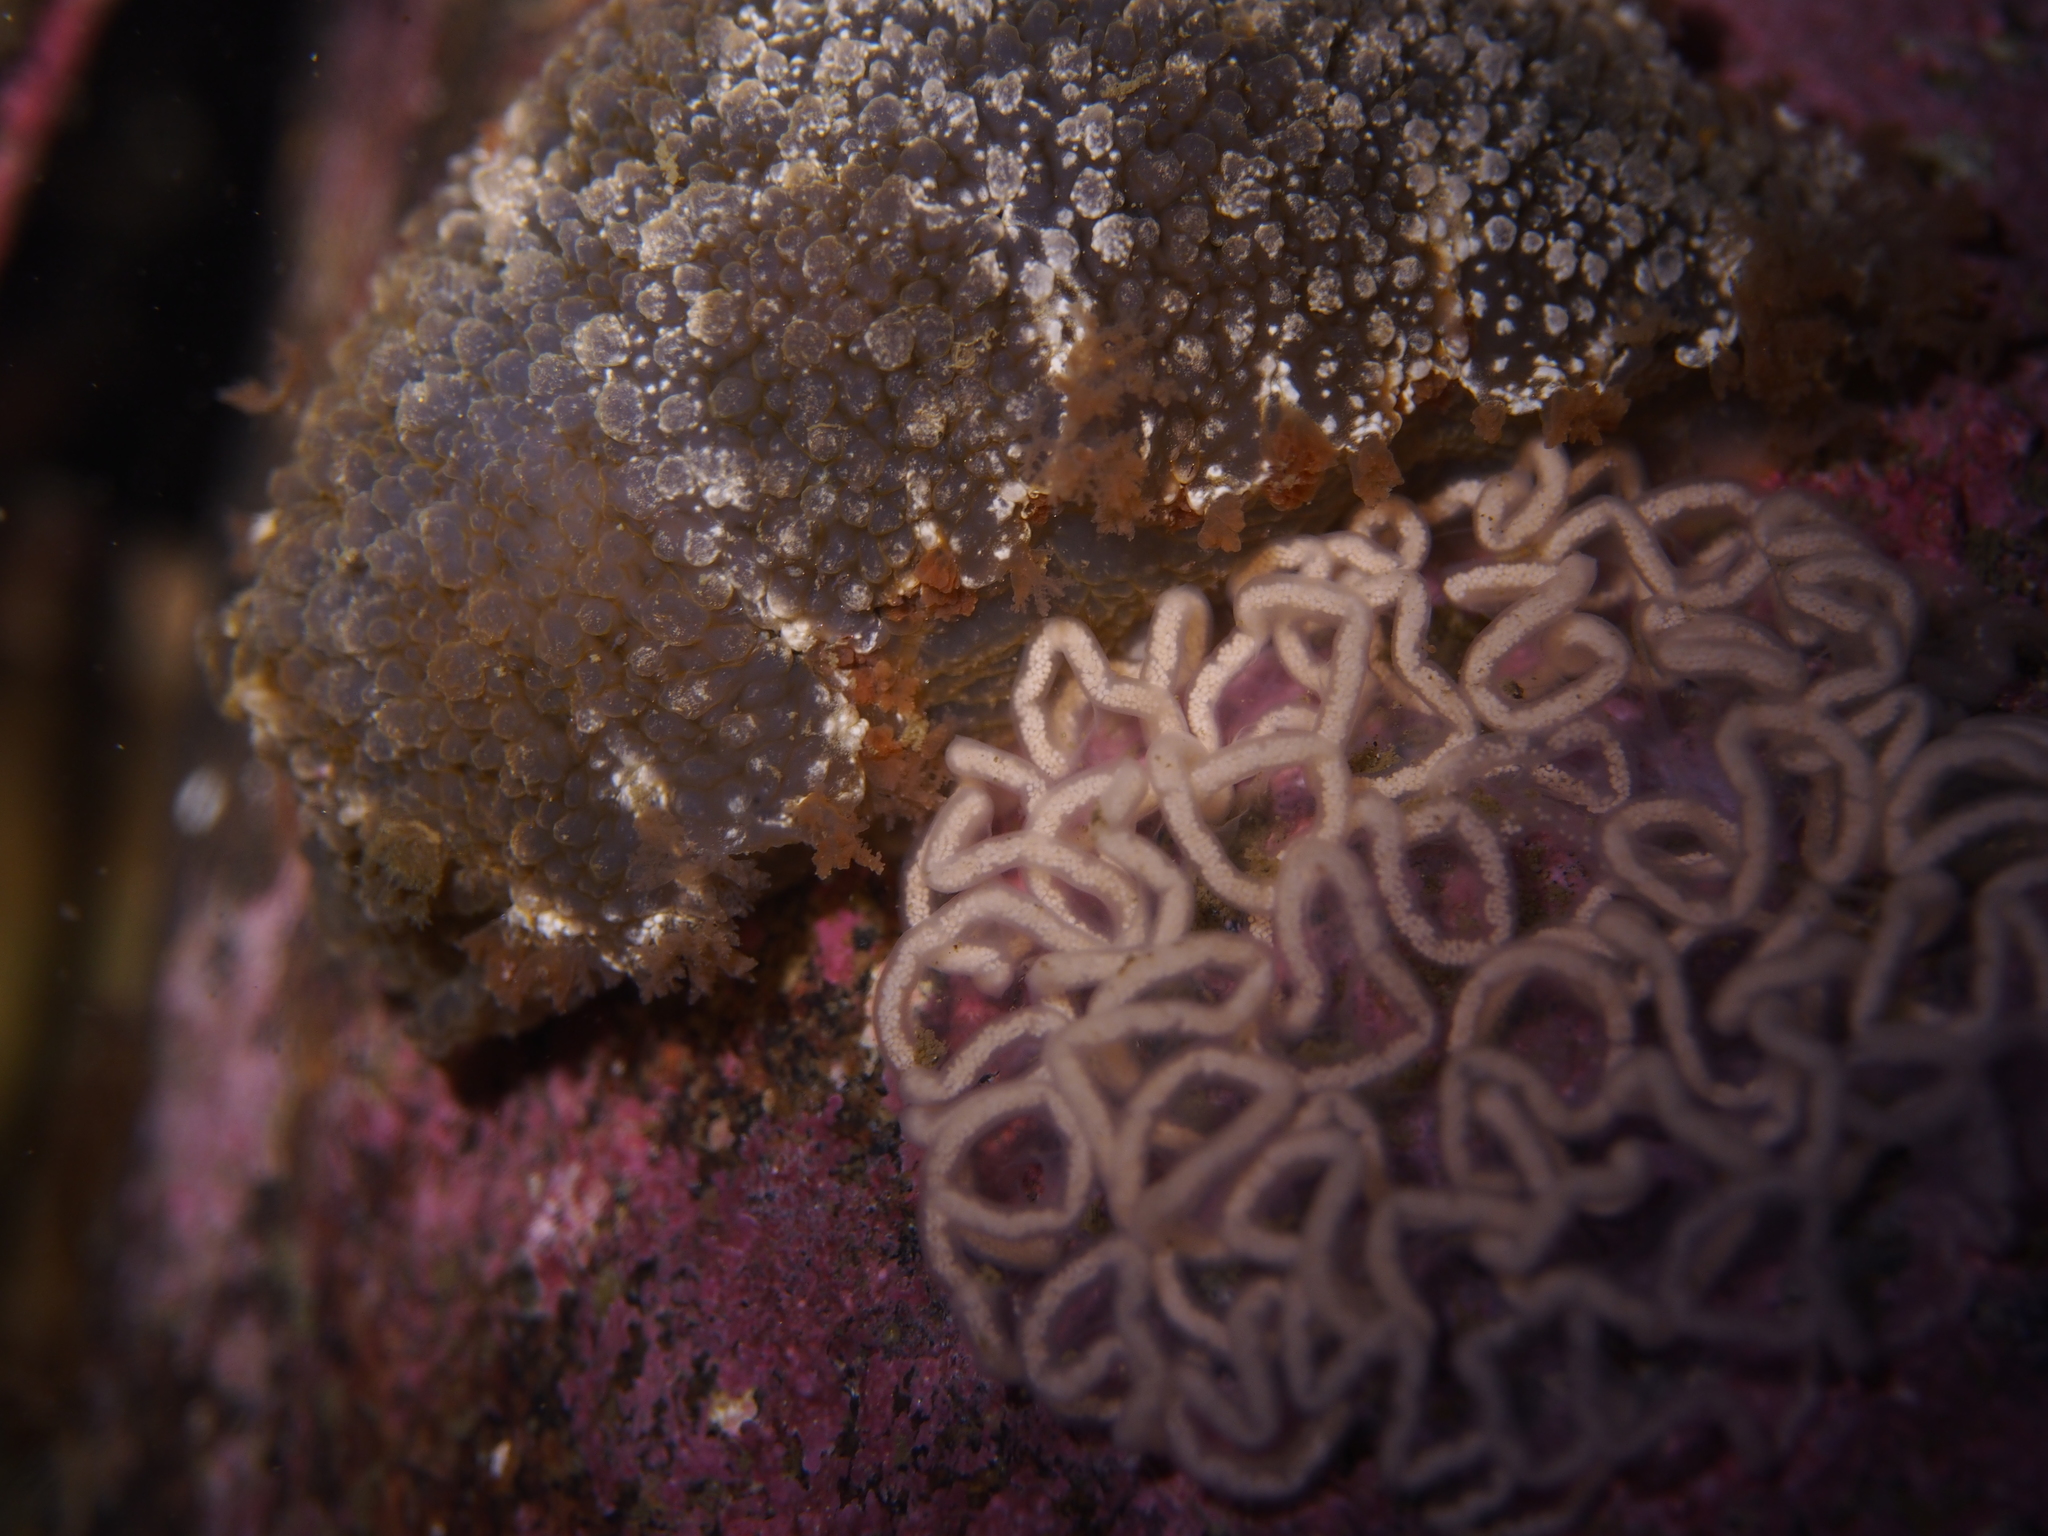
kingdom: Animalia
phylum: Mollusca
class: Gastropoda
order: Nudibranchia
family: Tritoniidae
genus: Tritonia
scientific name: Tritonia hombergii
